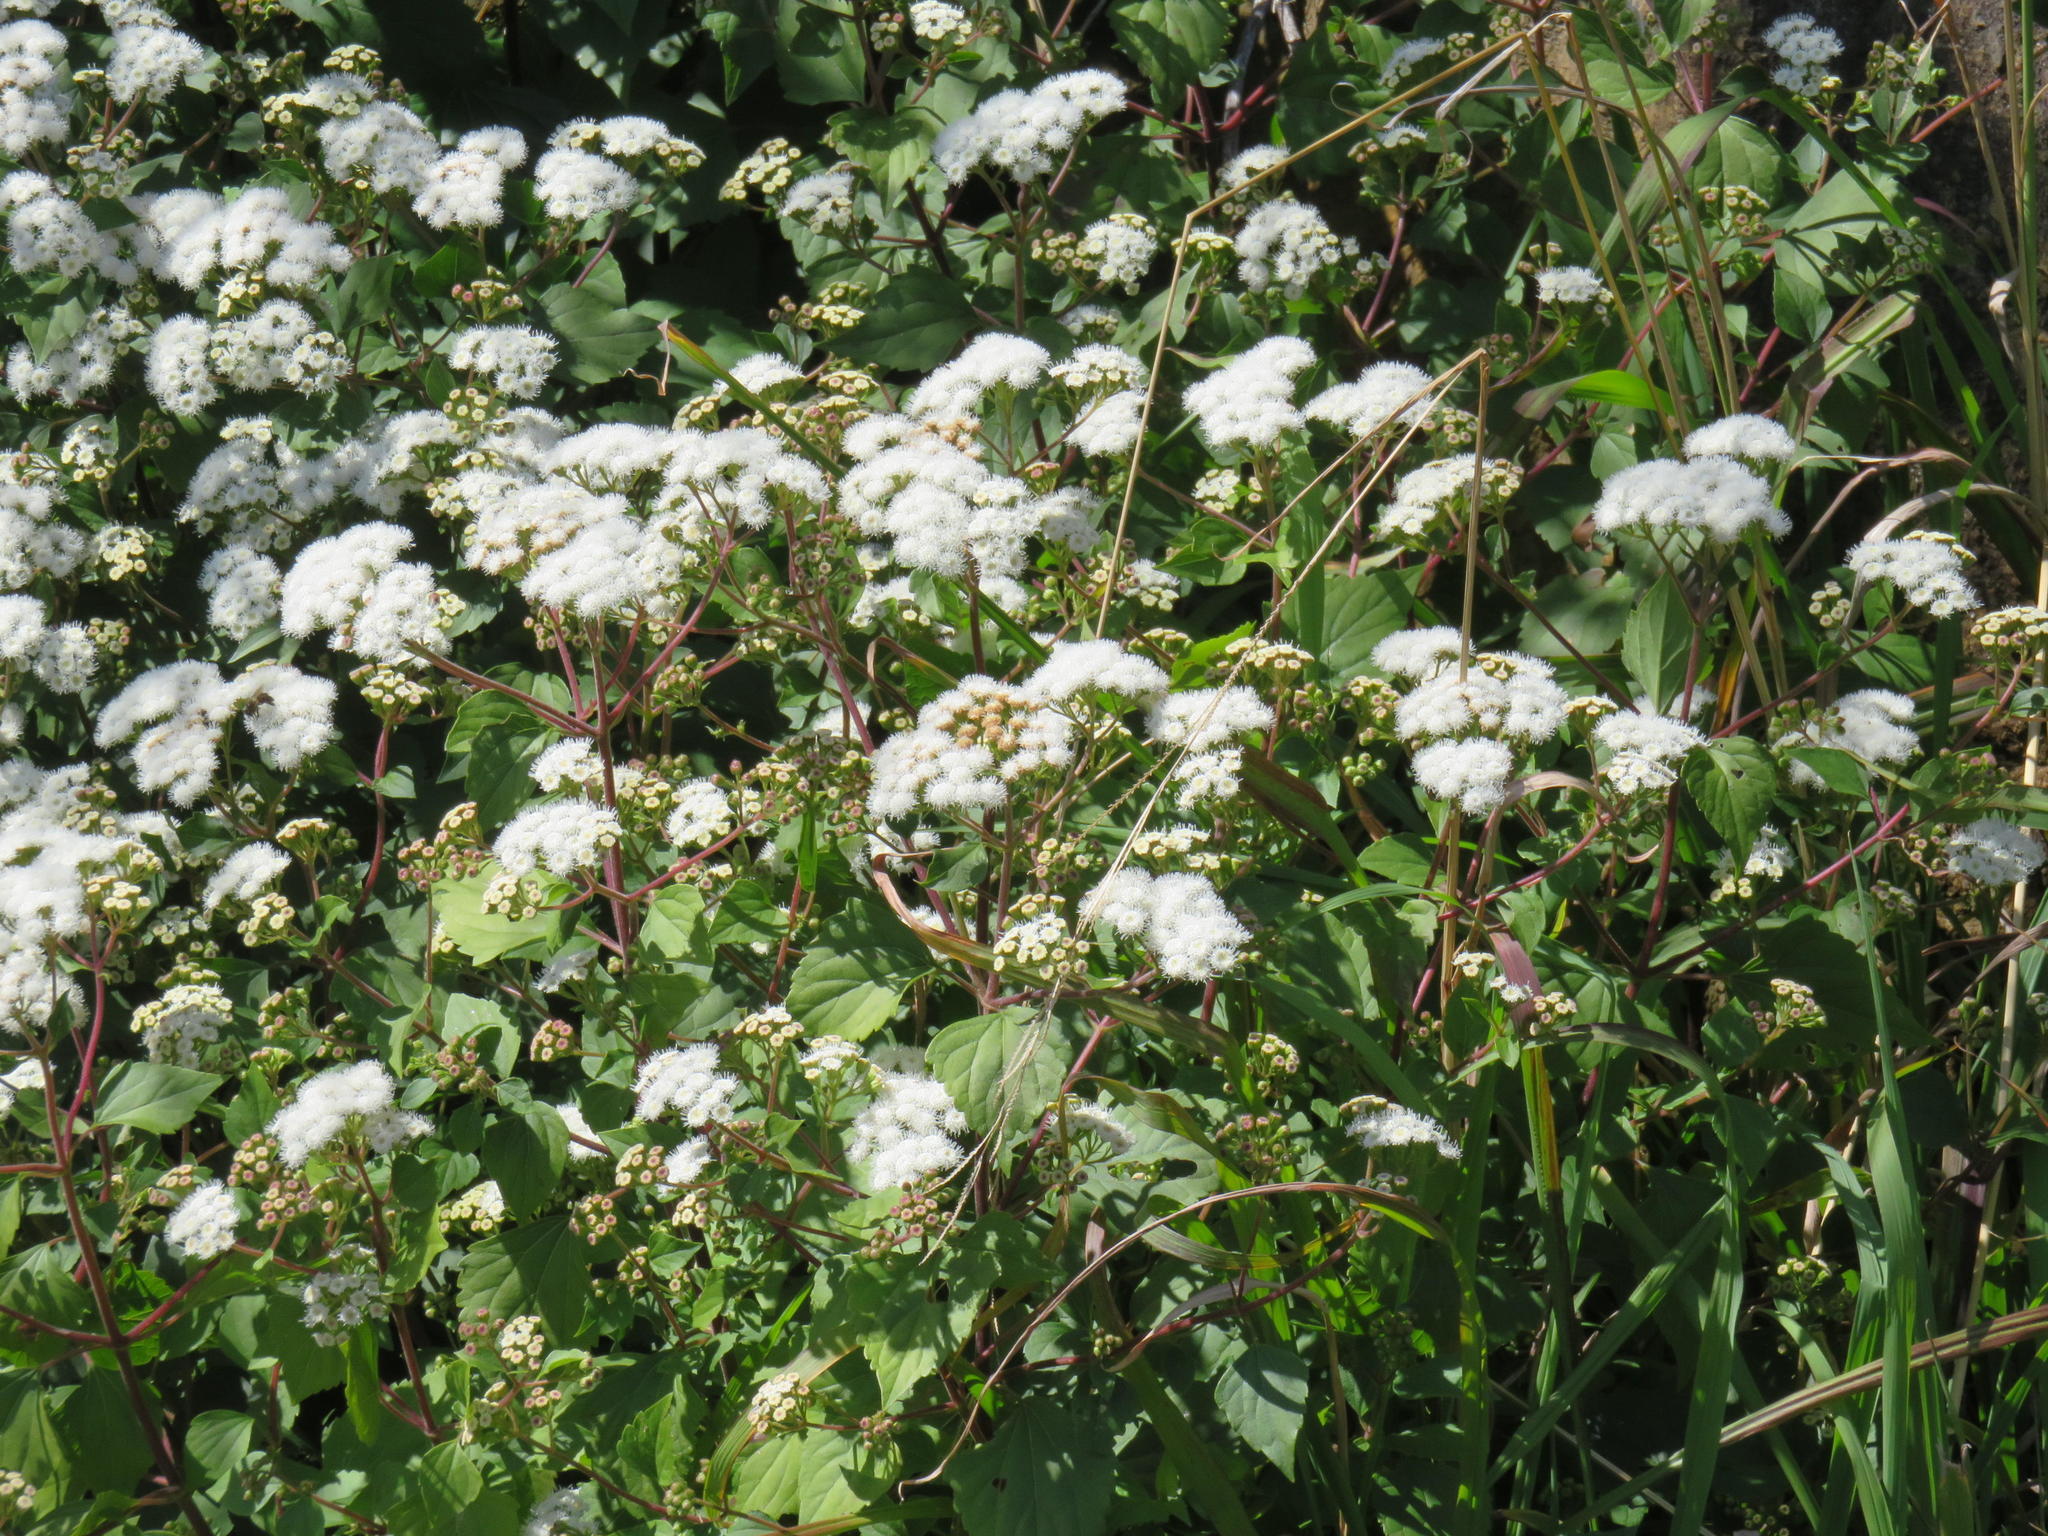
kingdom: Plantae
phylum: Tracheophyta
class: Magnoliopsida
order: Asterales
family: Asteraceae
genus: Ageratina
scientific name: Ageratina adenophora
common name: Sticky snakeroot
